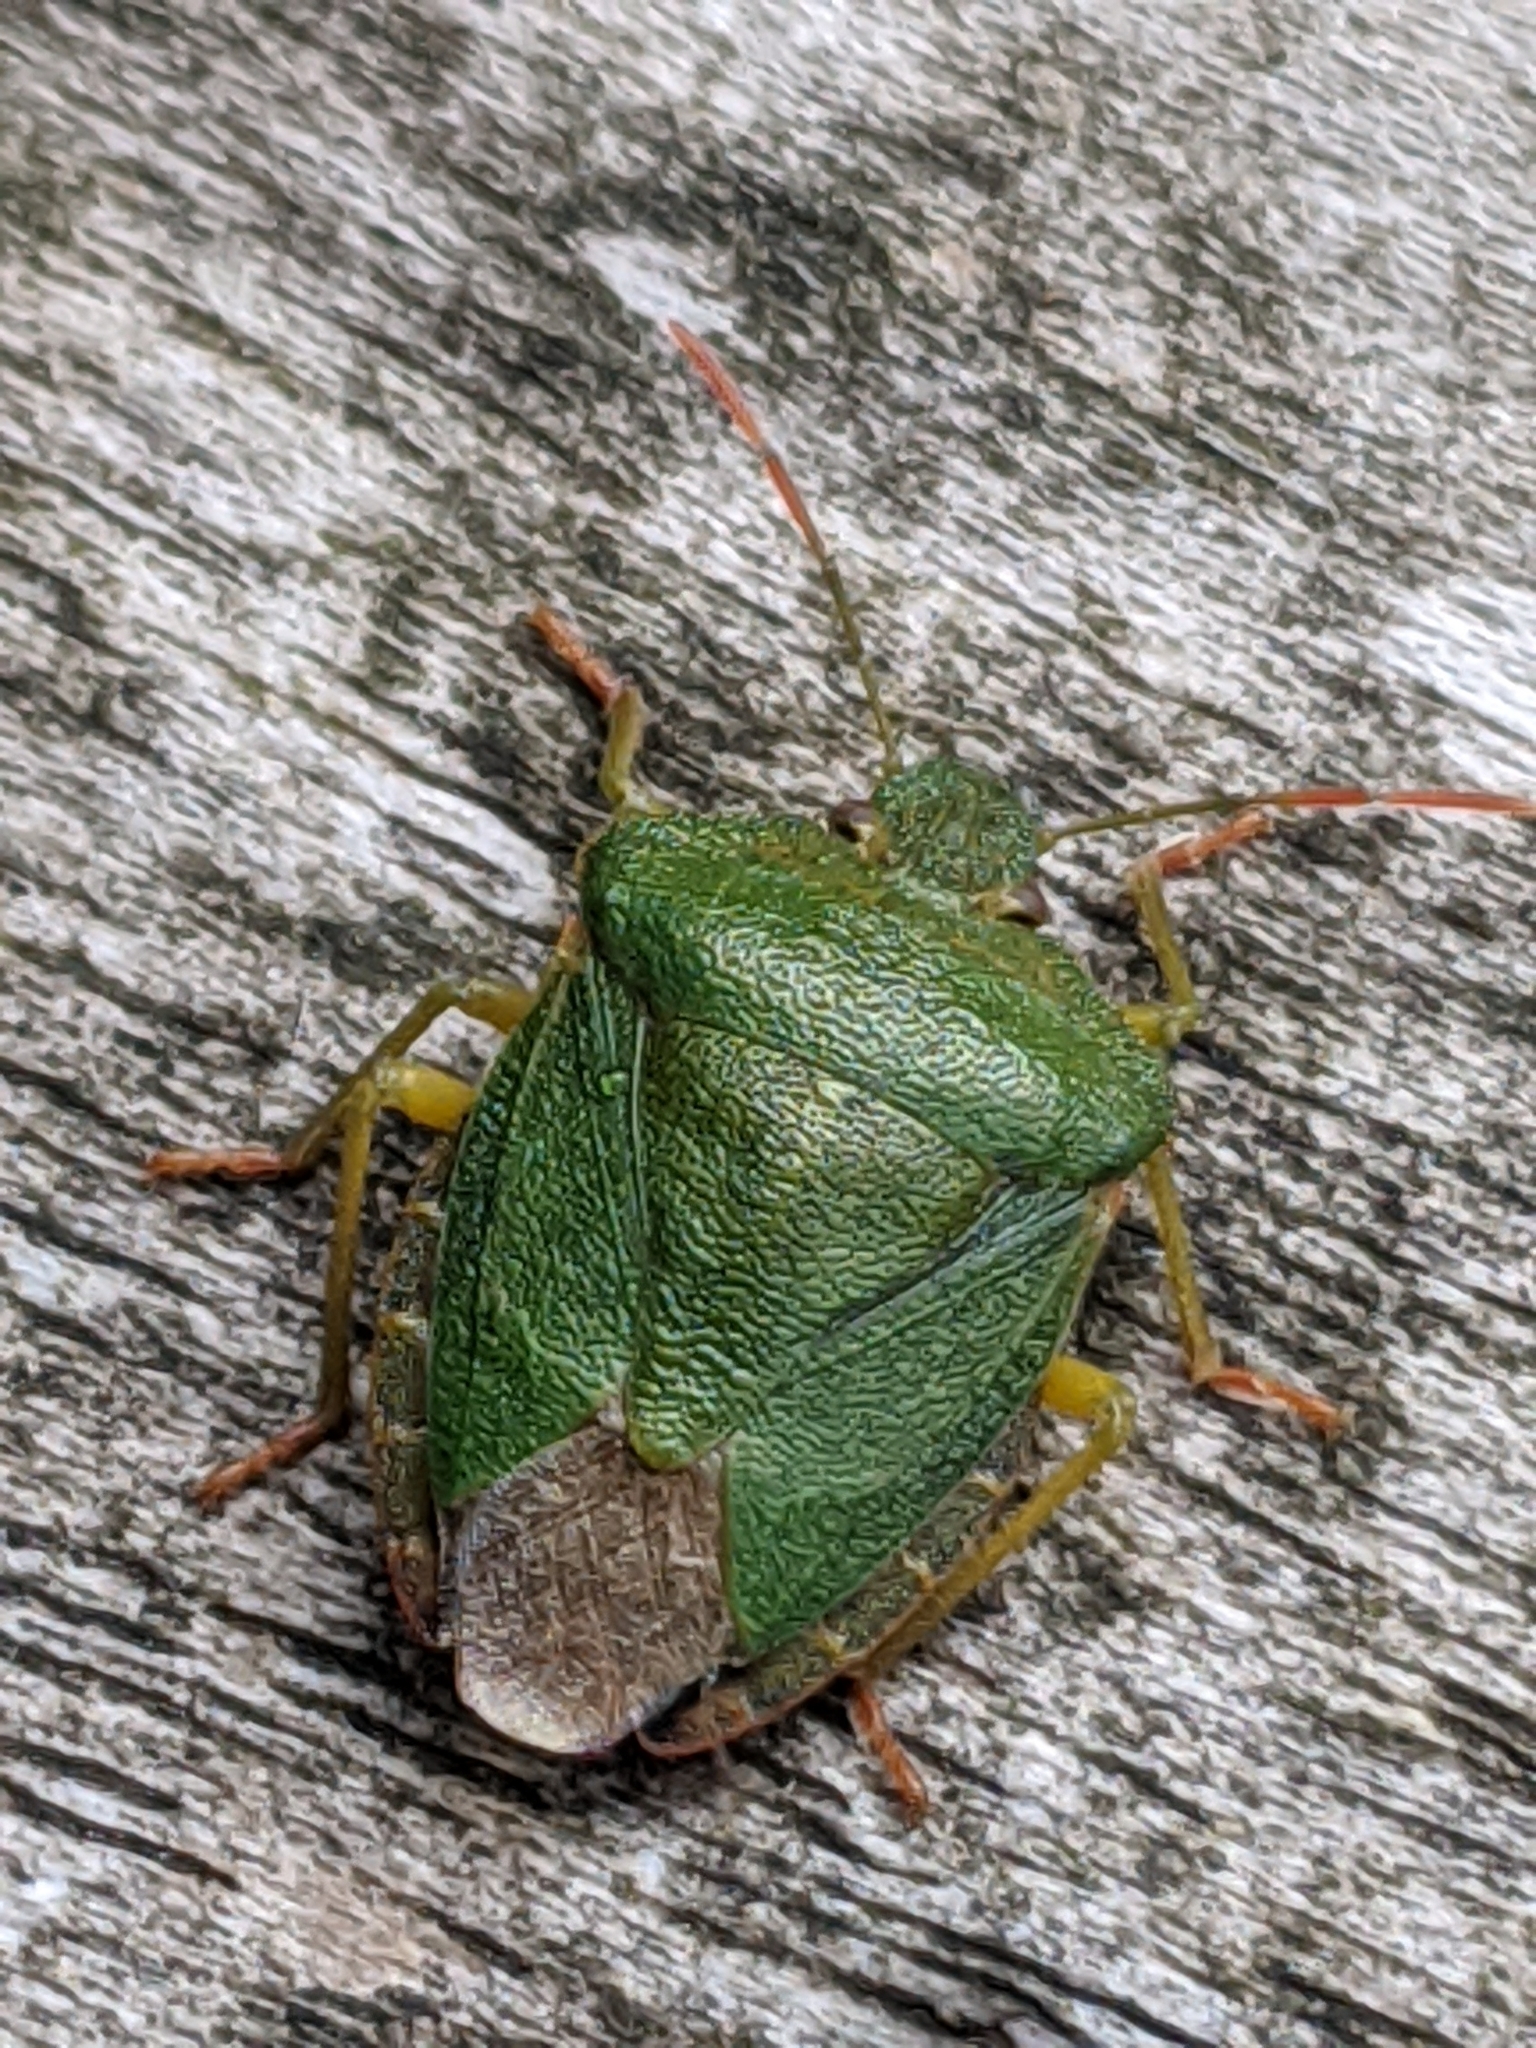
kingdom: Animalia
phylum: Arthropoda
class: Insecta
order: Hemiptera
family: Pentatomidae
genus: Palomena
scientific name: Palomena prasina
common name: Green shieldbug
